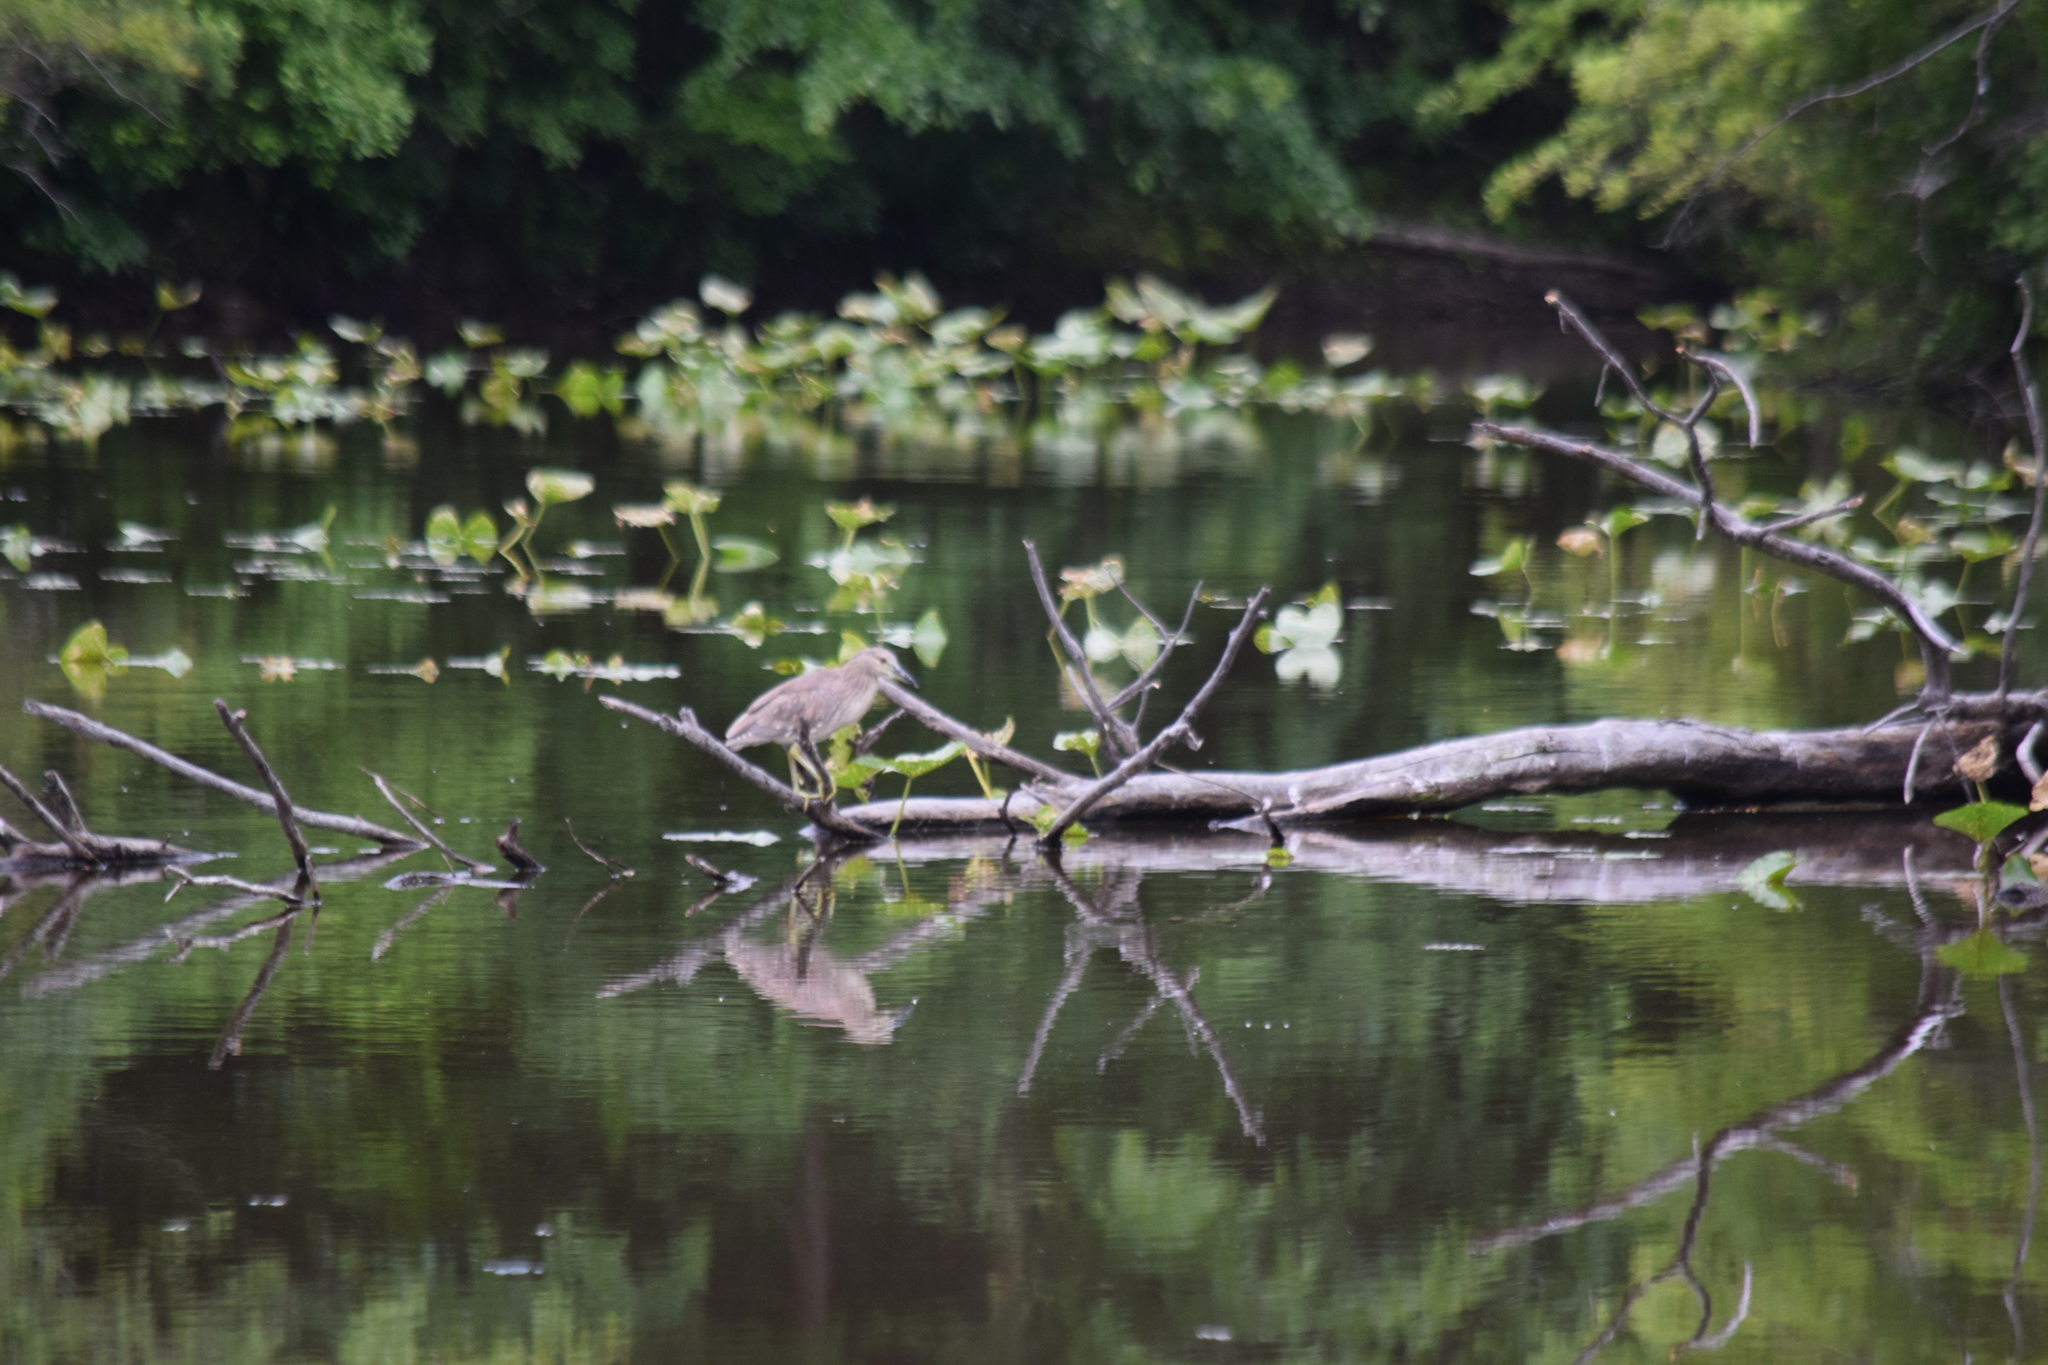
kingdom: Animalia
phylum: Chordata
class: Aves
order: Pelecaniformes
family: Ardeidae
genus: Nyctanassa
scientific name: Nyctanassa violacea
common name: Yellow-crowned night heron
